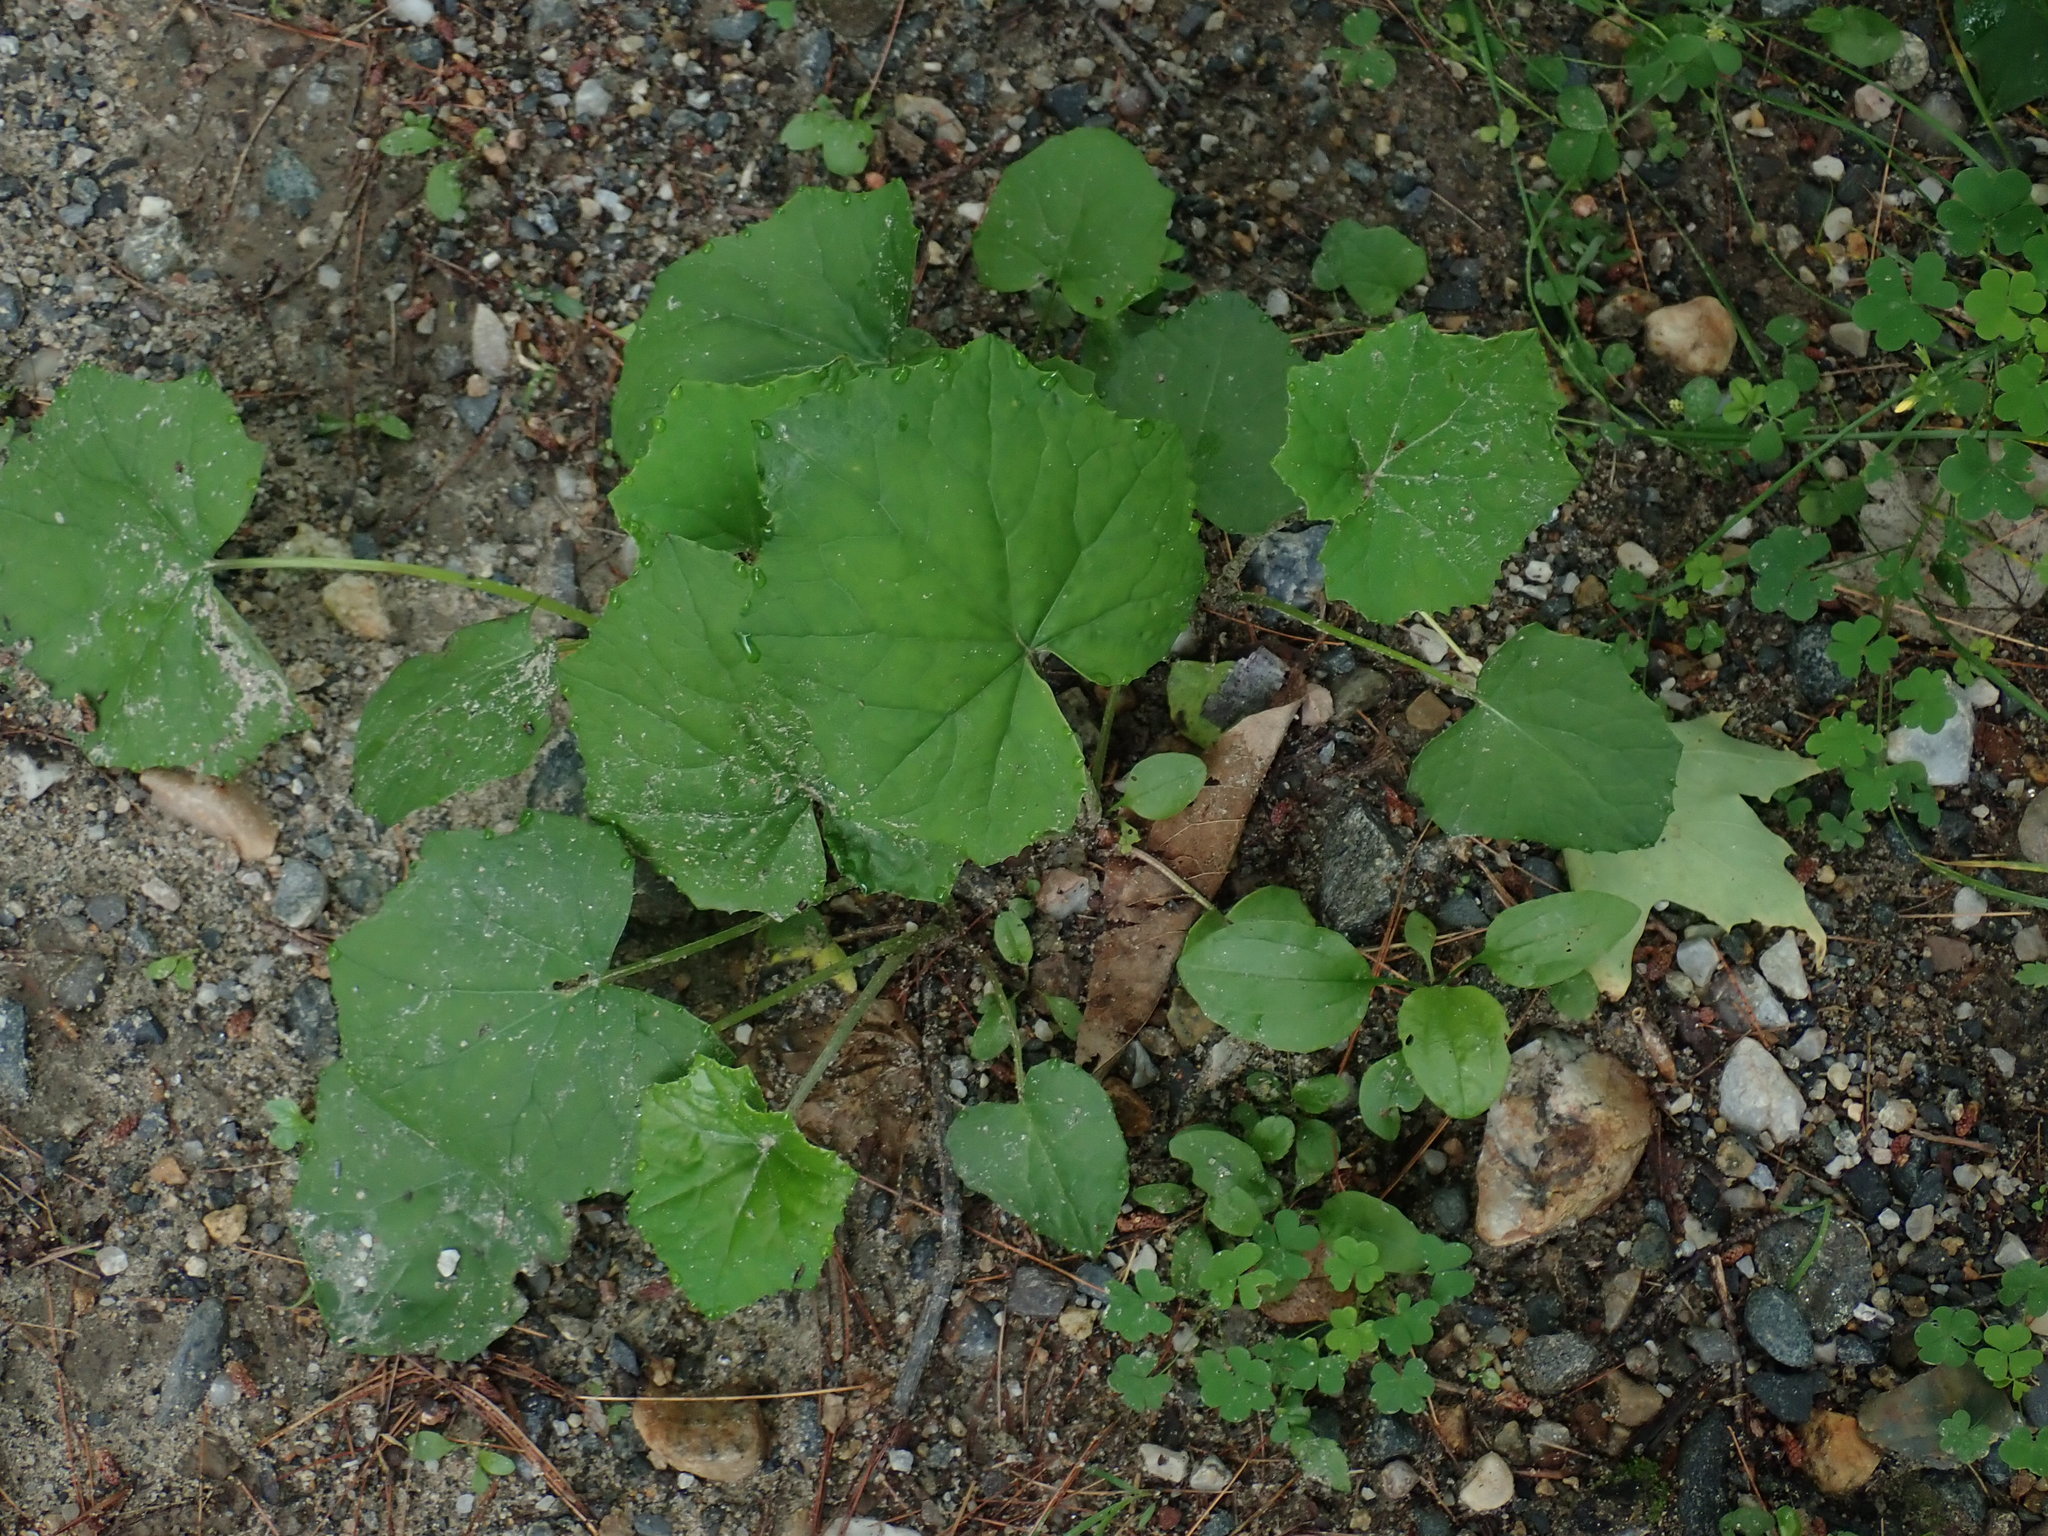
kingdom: Plantae
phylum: Tracheophyta
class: Magnoliopsida
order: Asterales
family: Asteraceae
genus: Tussilago
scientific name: Tussilago farfara
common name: Coltsfoot
